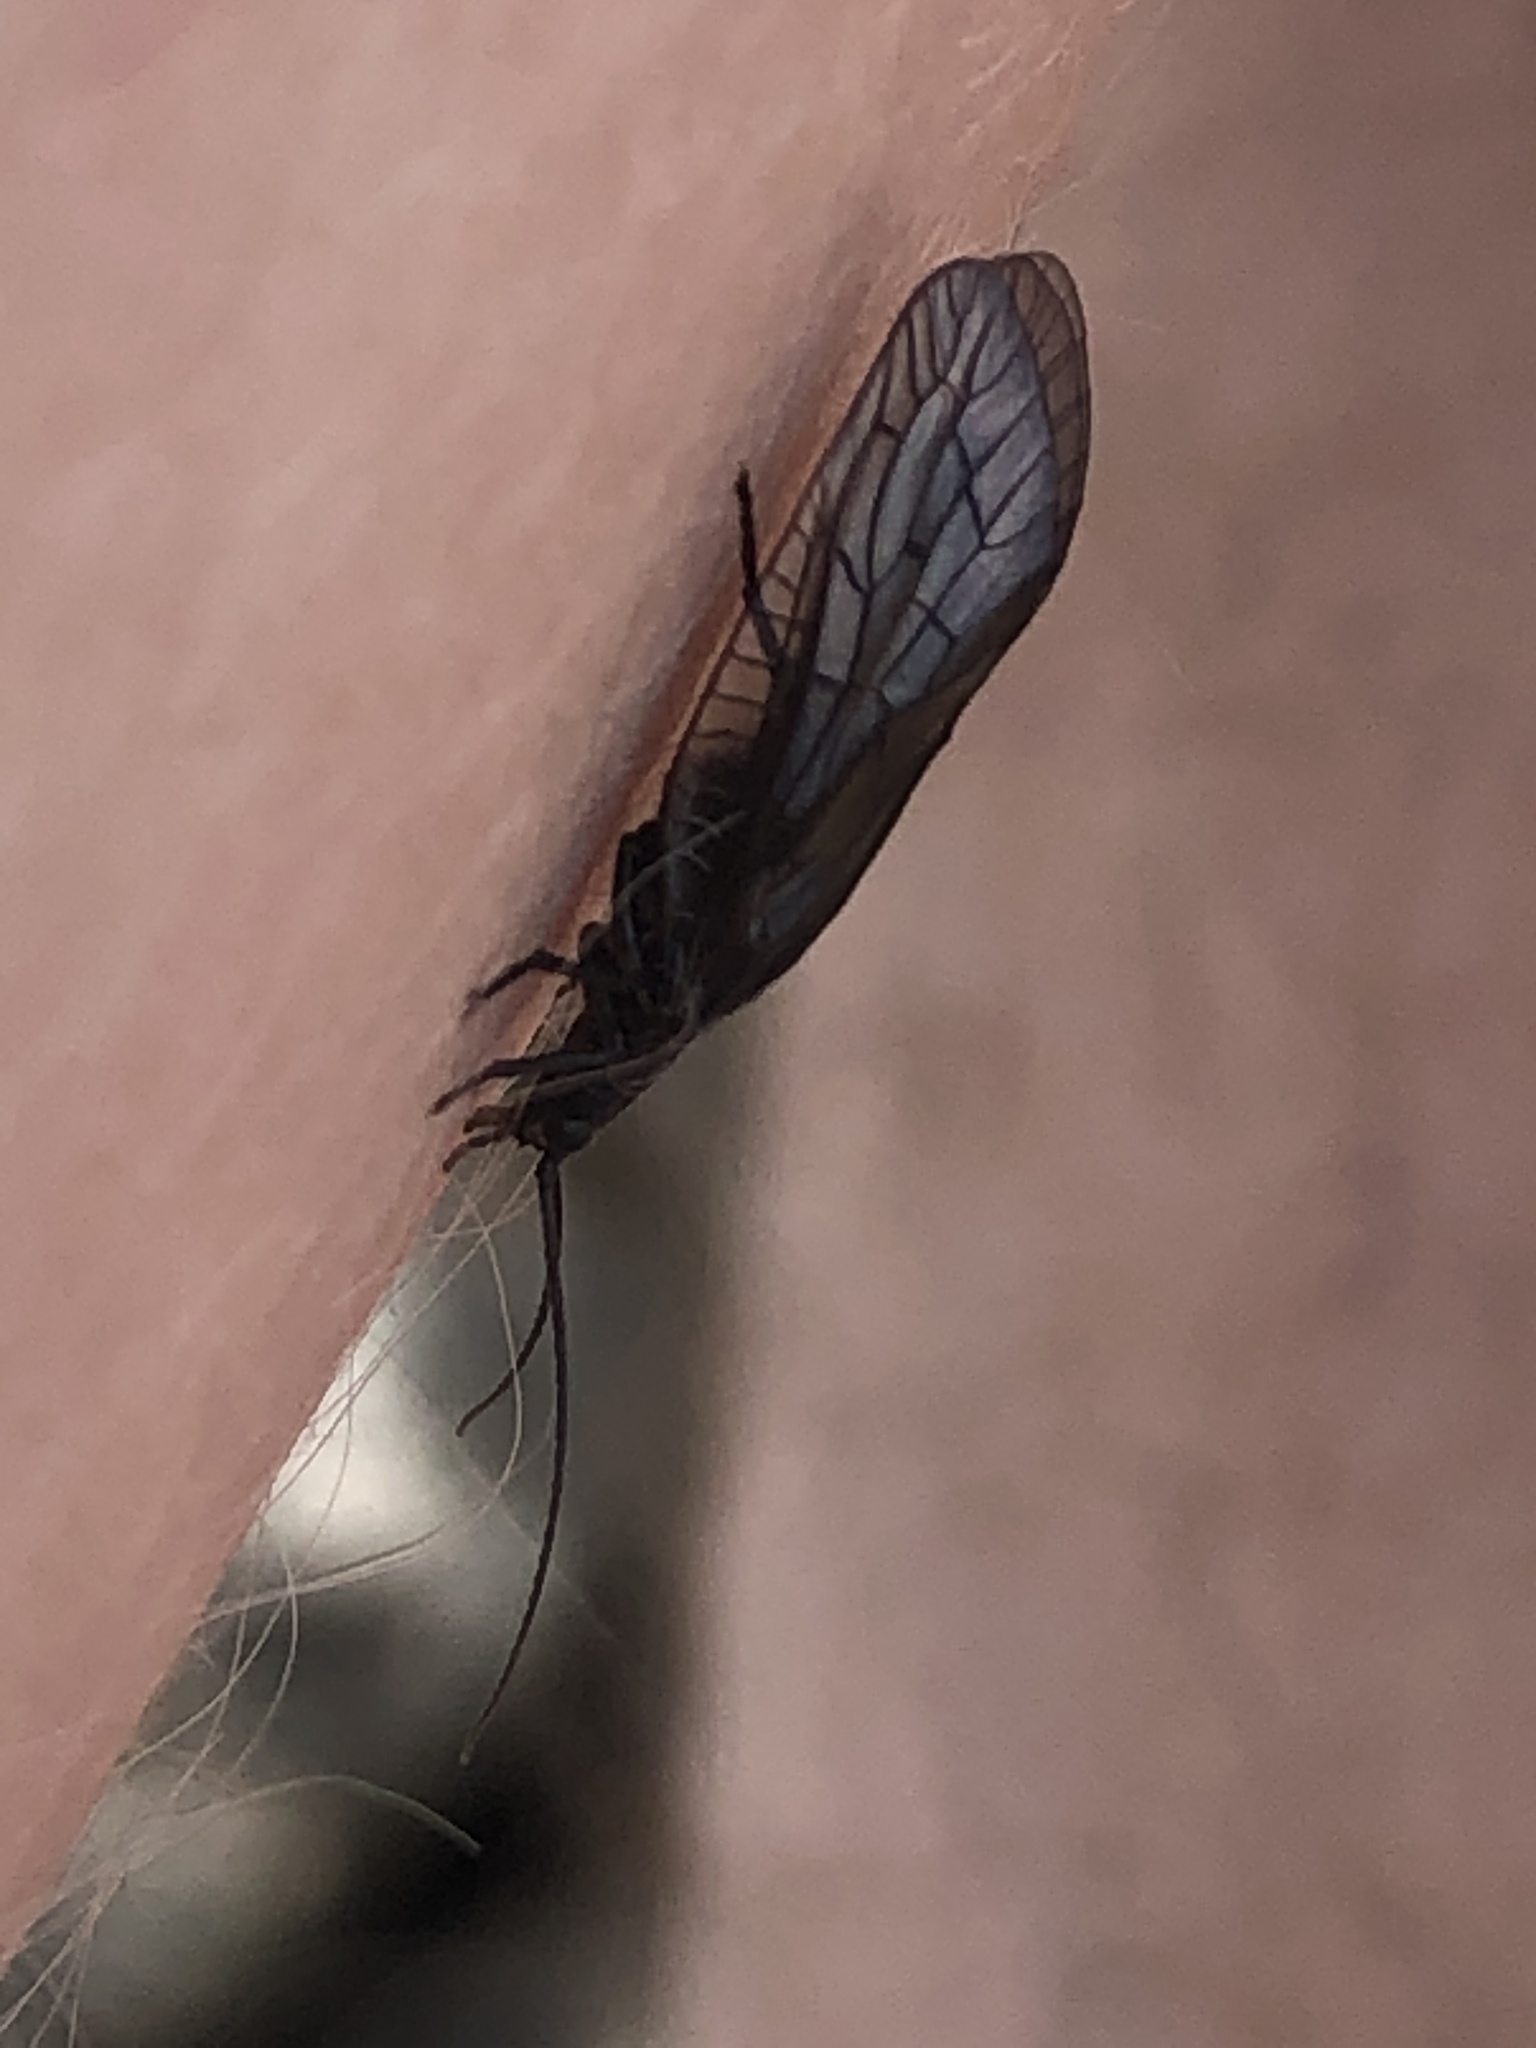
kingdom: Animalia
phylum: Arthropoda
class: Insecta
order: Megaloptera
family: Sialidae
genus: Sialis
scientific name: Sialis
